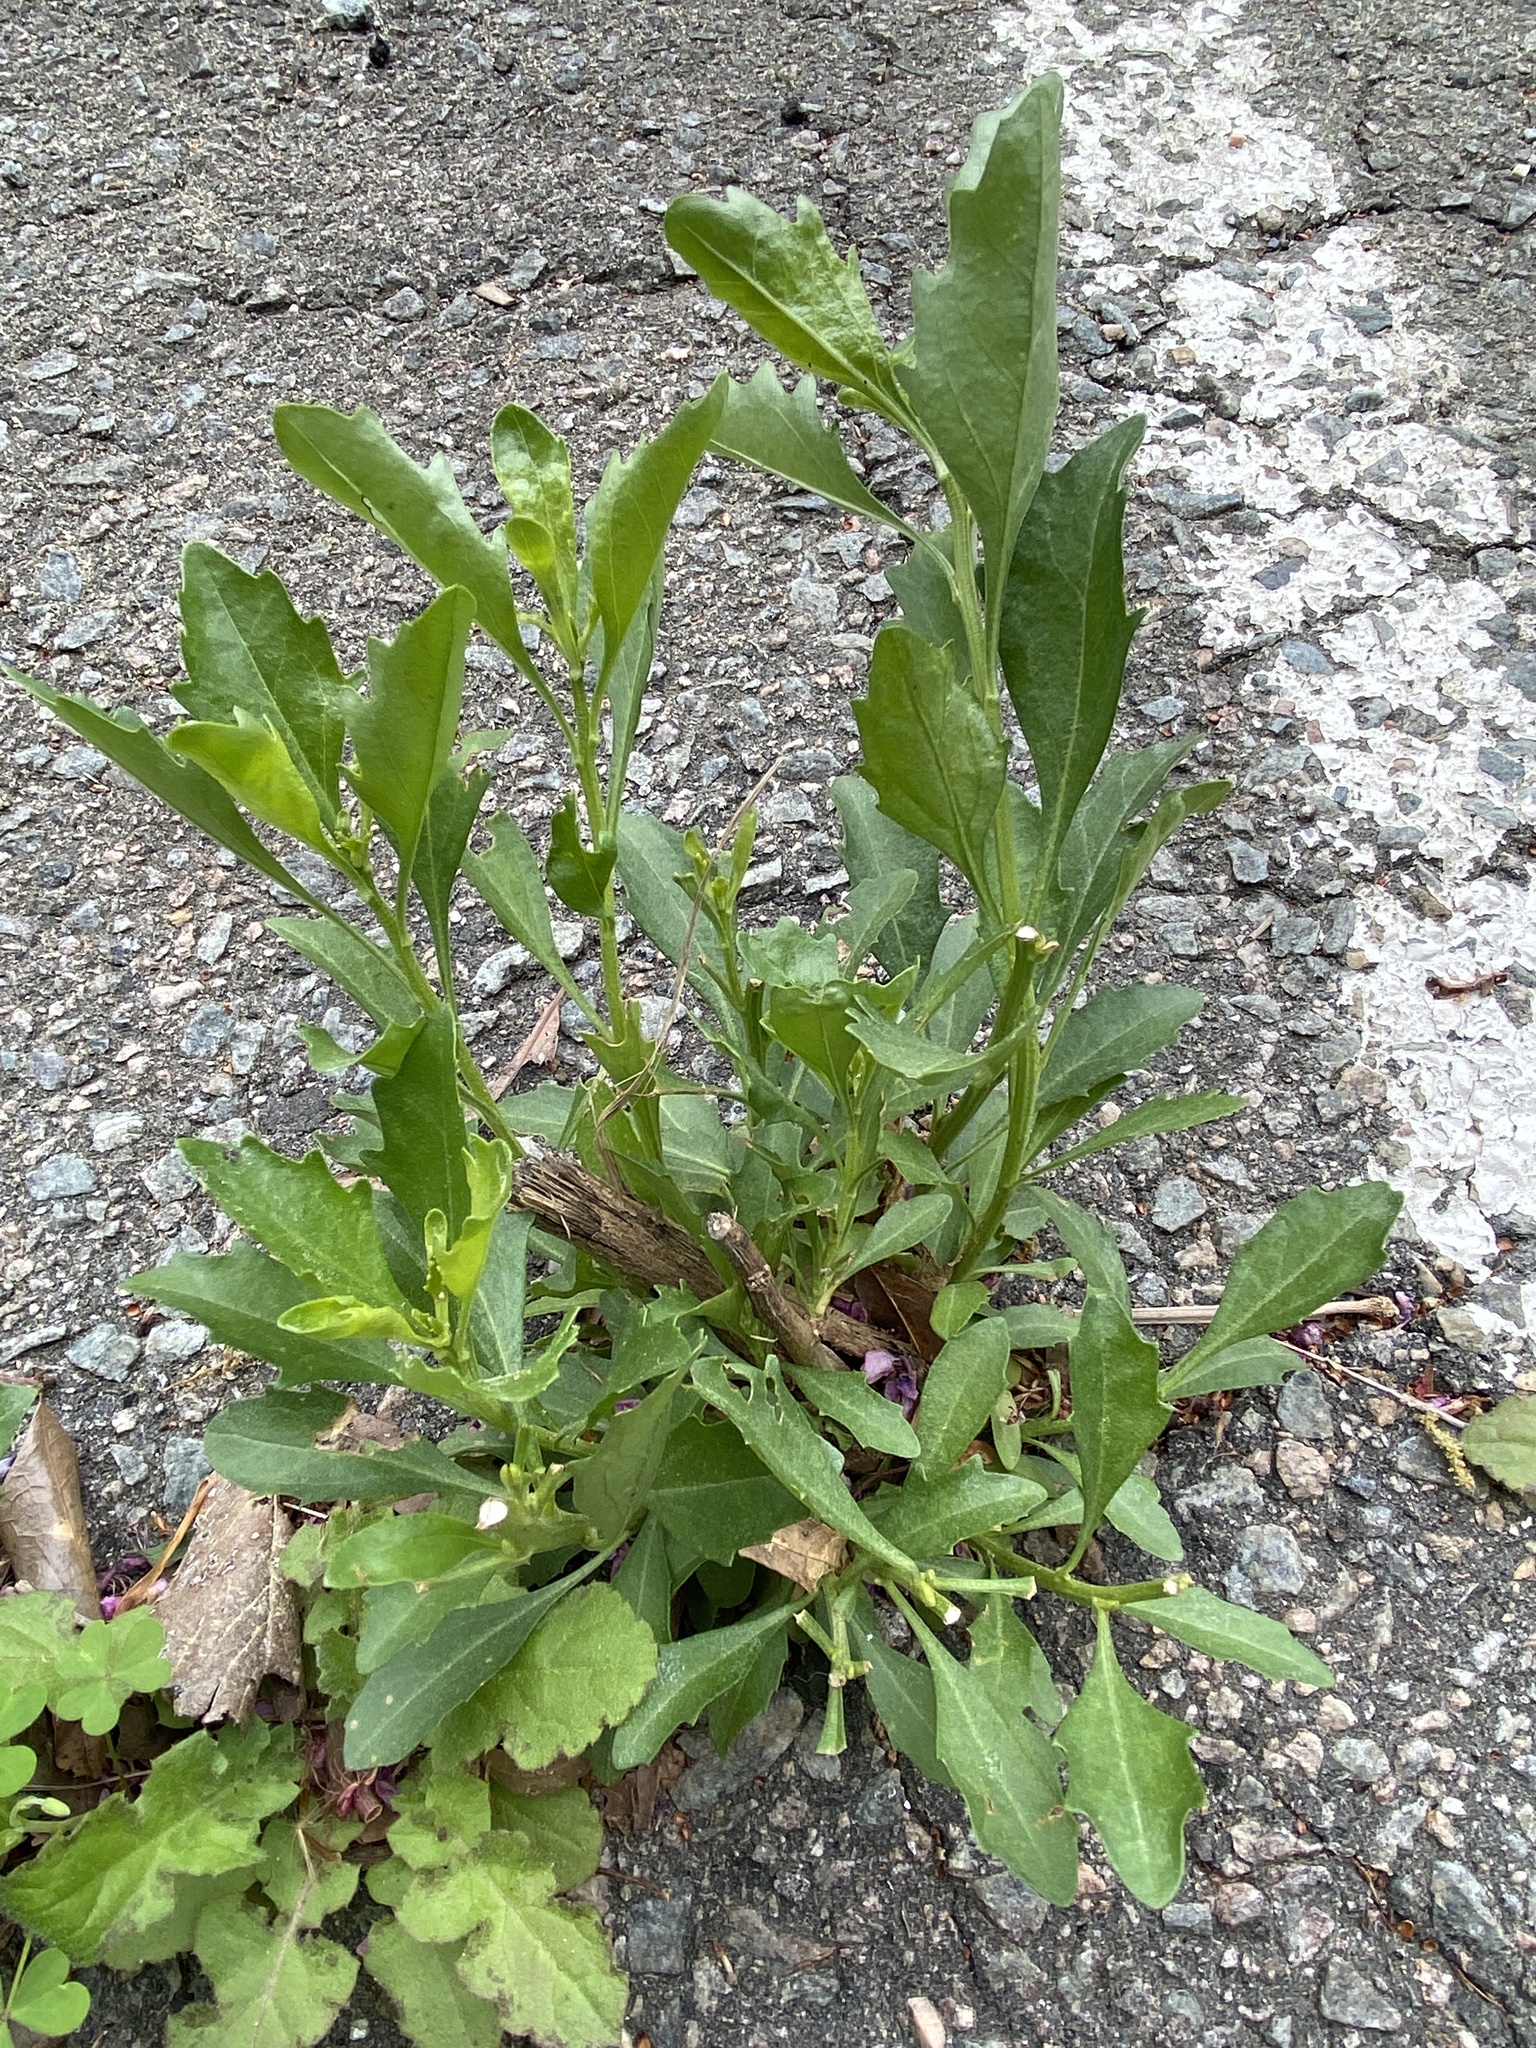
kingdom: Plantae
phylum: Tracheophyta
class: Magnoliopsida
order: Asterales
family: Asteraceae
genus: Baccharis
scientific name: Baccharis halimifolia
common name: Eastern baccharis
